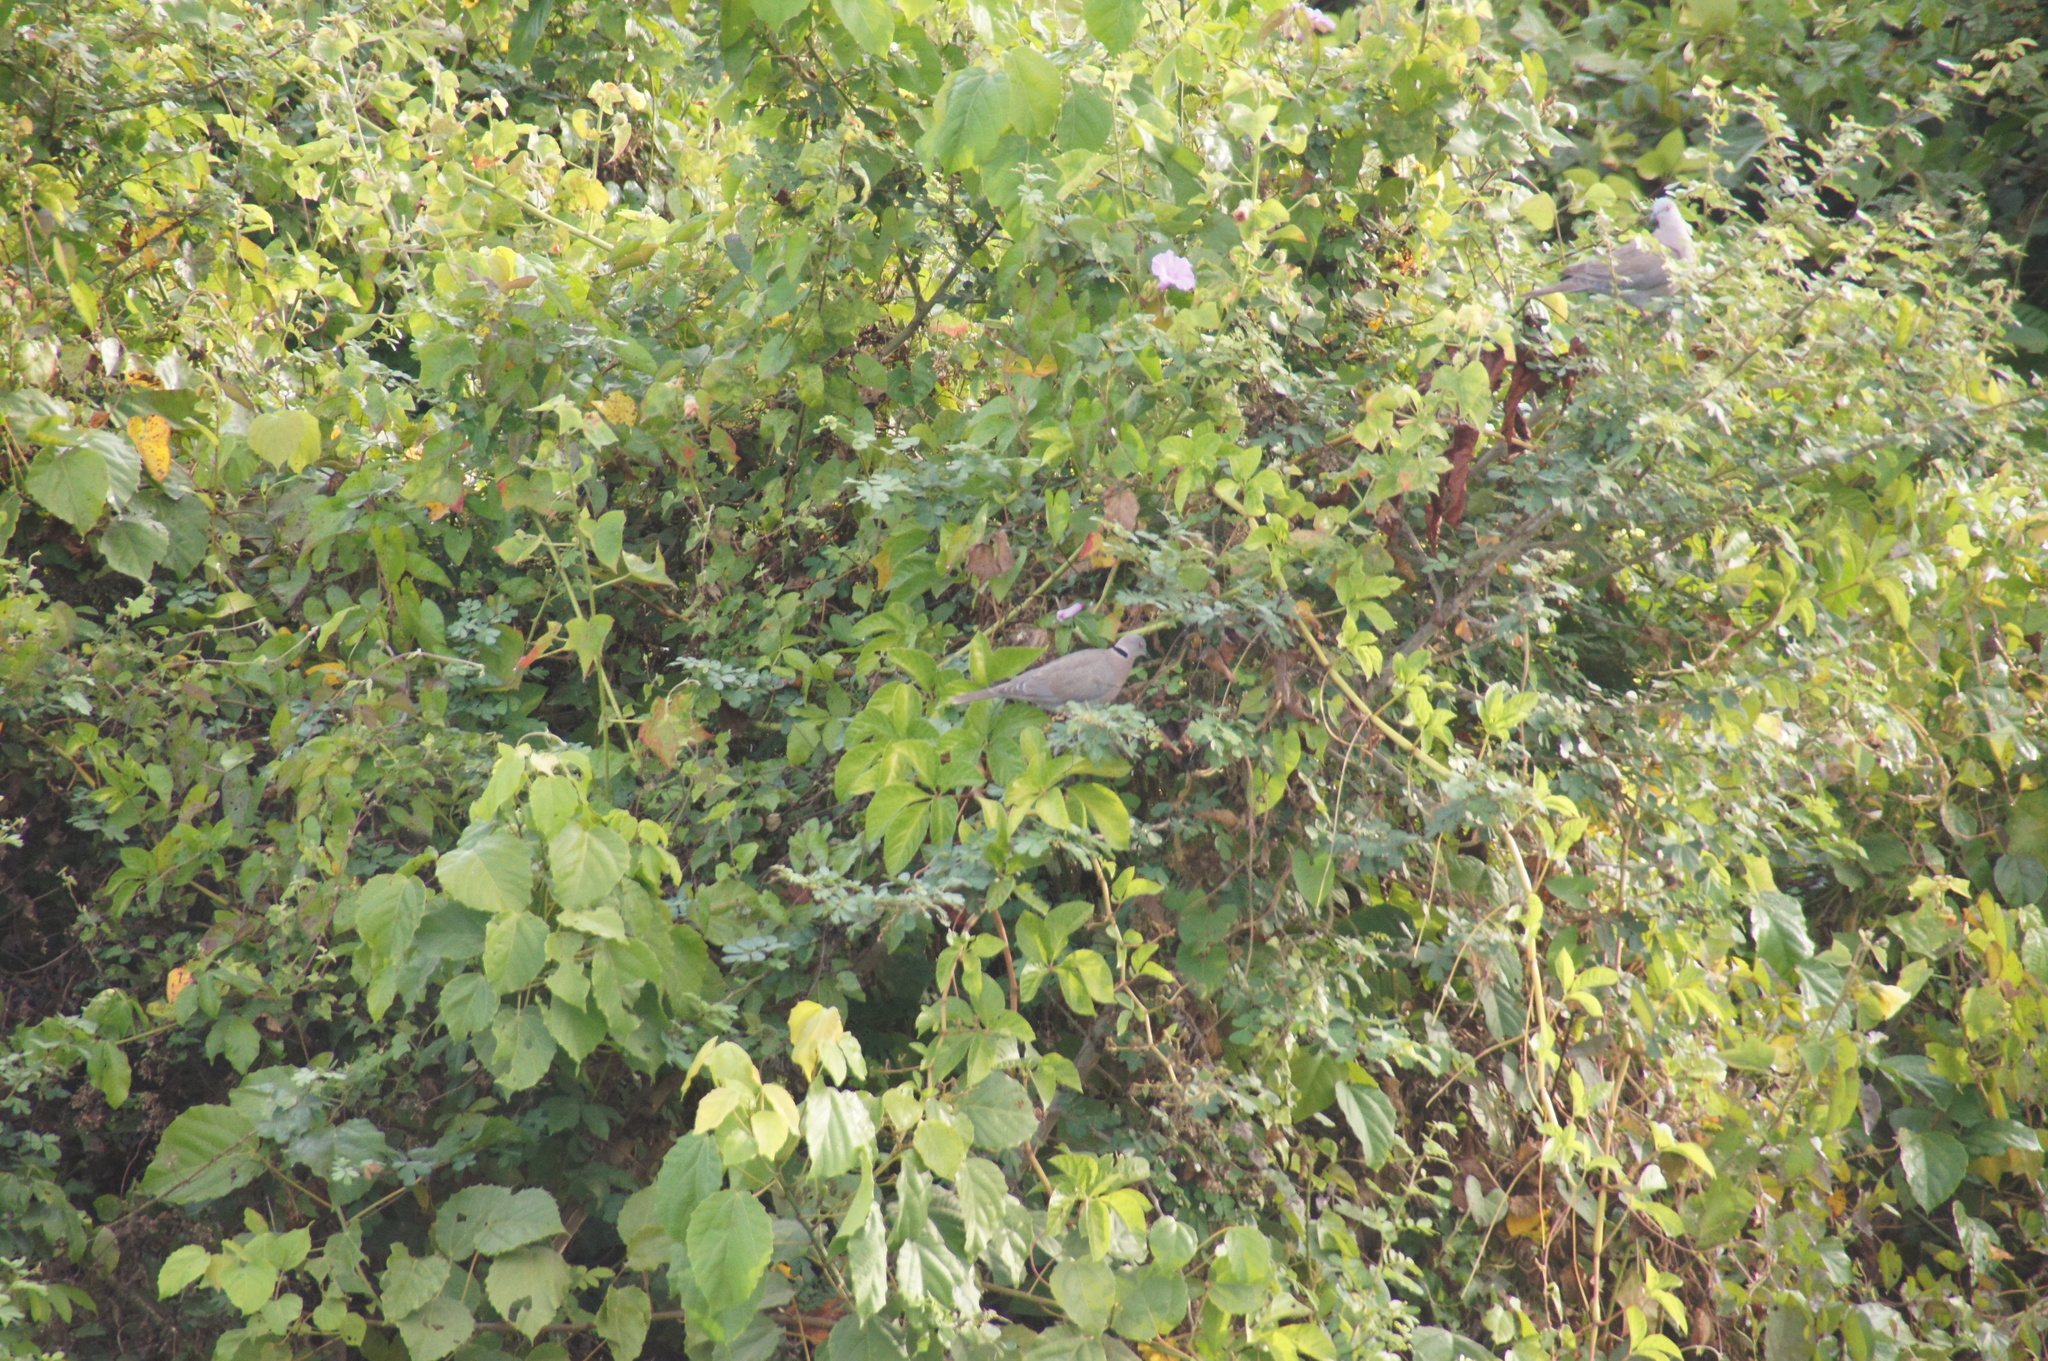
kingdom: Animalia
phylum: Chordata
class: Aves
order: Columbiformes
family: Columbidae
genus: Streptopelia
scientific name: Streptopelia decipiens
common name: Mourning collared dove
